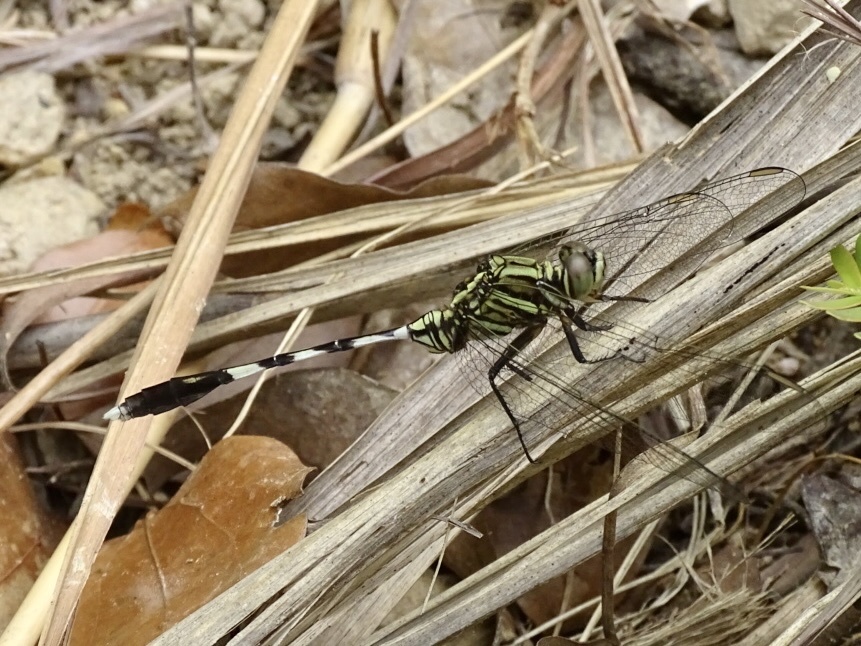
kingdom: Animalia
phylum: Arthropoda
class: Insecta
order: Odonata
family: Libellulidae
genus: Orthetrum
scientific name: Orthetrum sabina
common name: Slender skimmer
